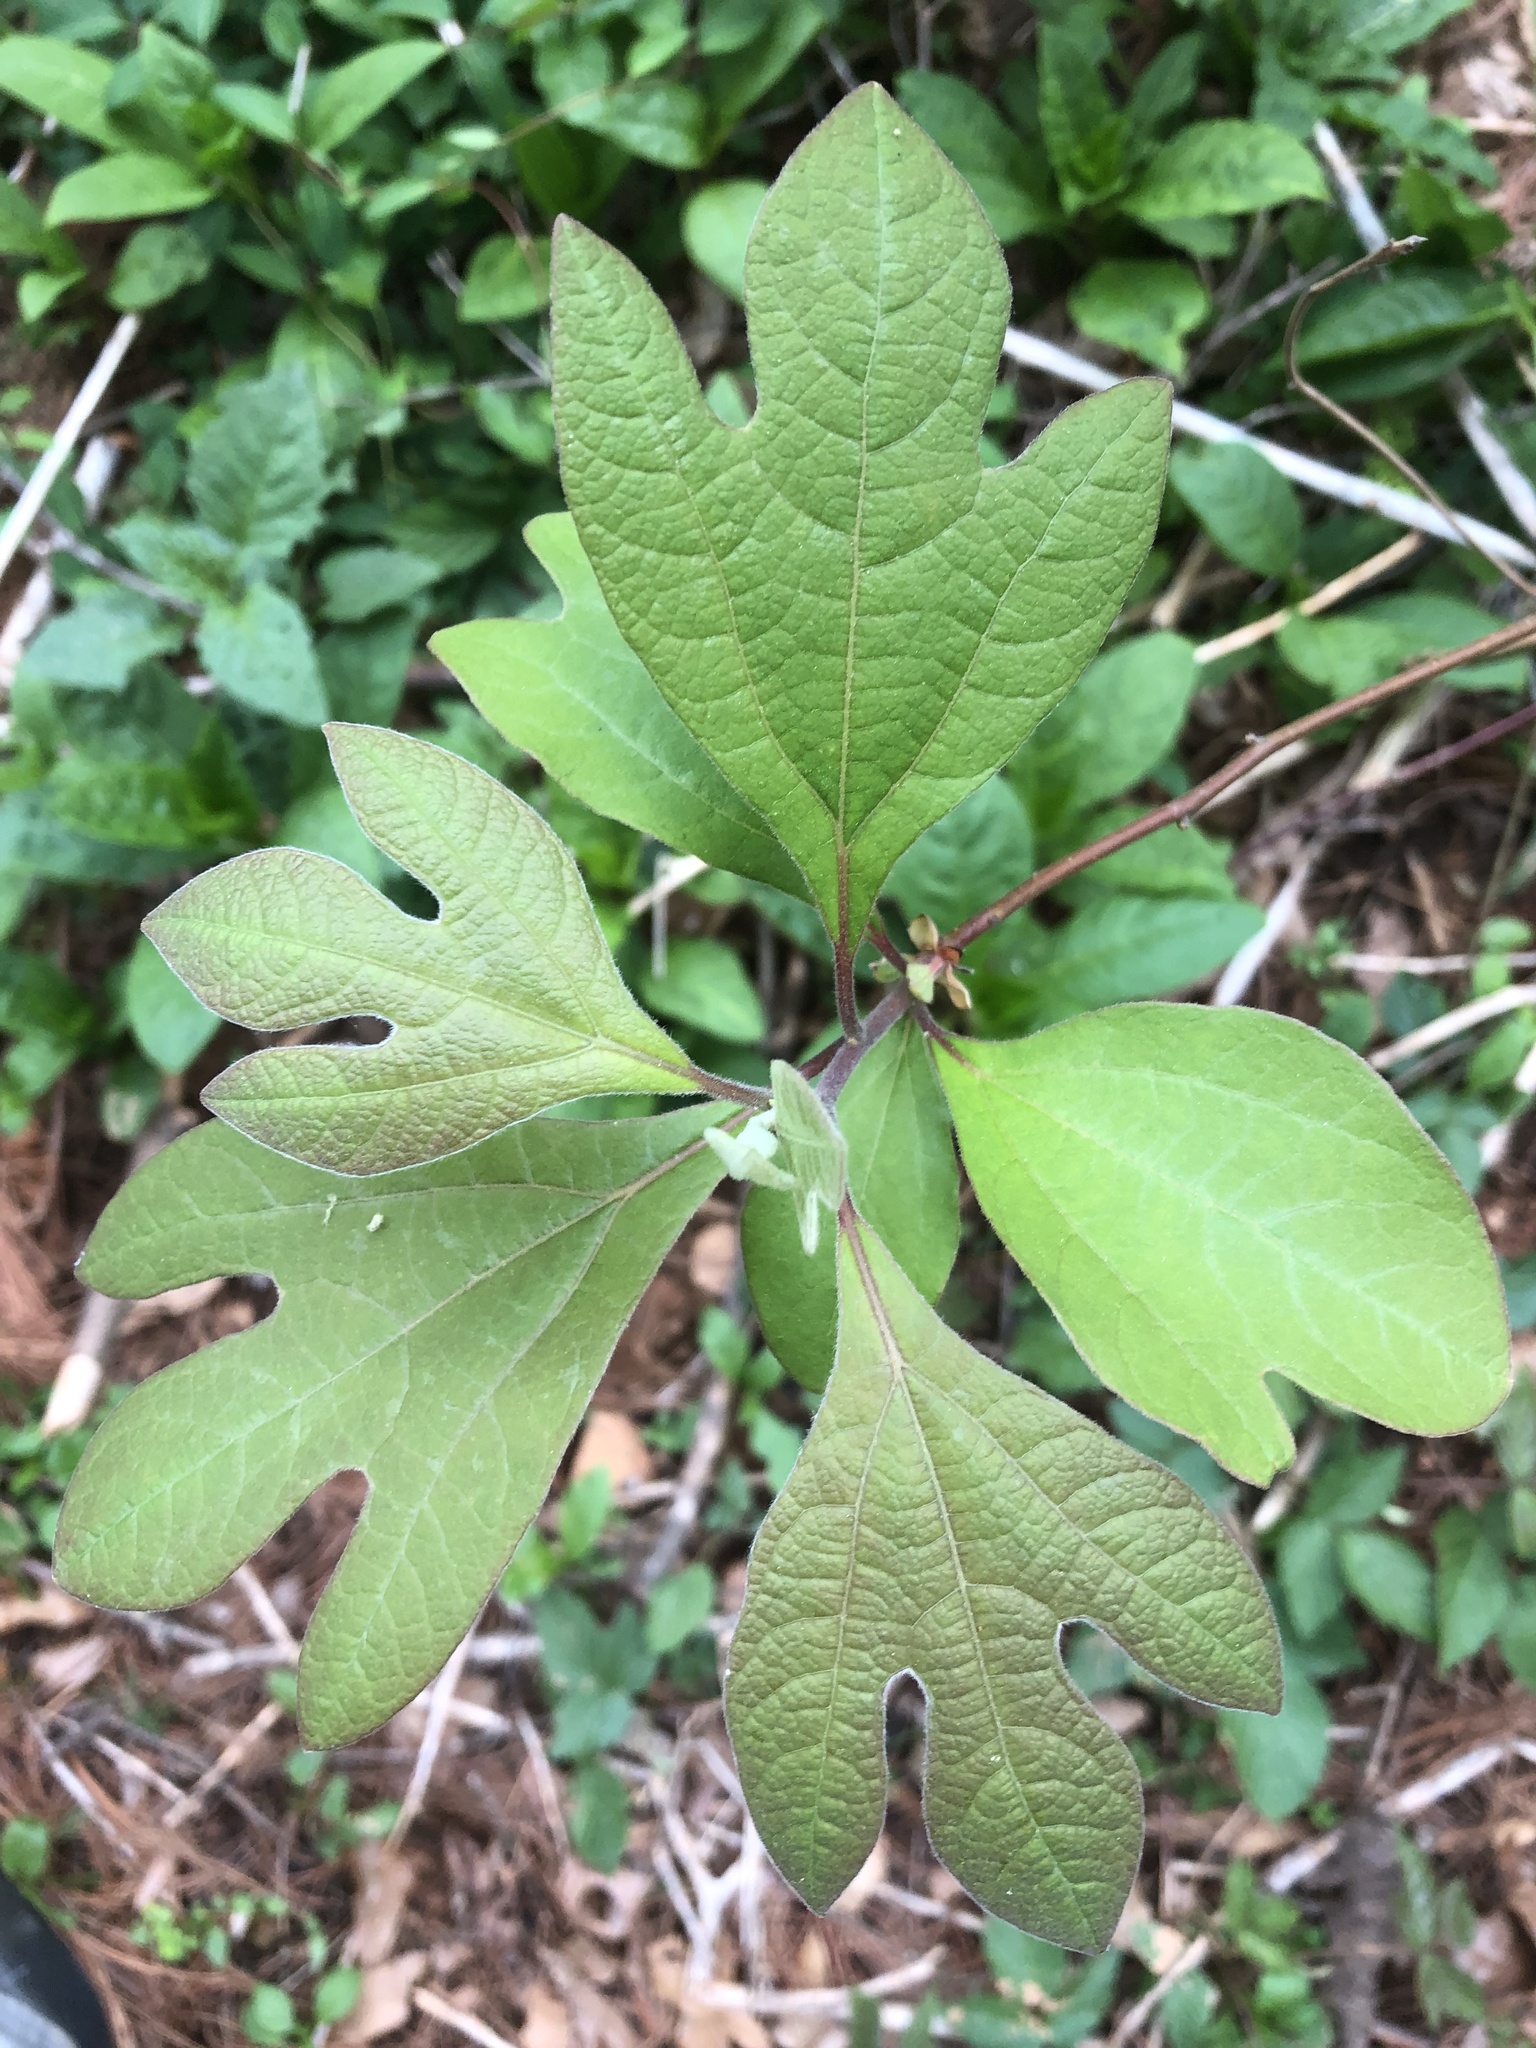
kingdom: Plantae
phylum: Tracheophyta
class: Magnoliopsida
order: Laurales
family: Lauraceae
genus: Sassafras
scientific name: Sassafras albidum
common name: Sassafras
